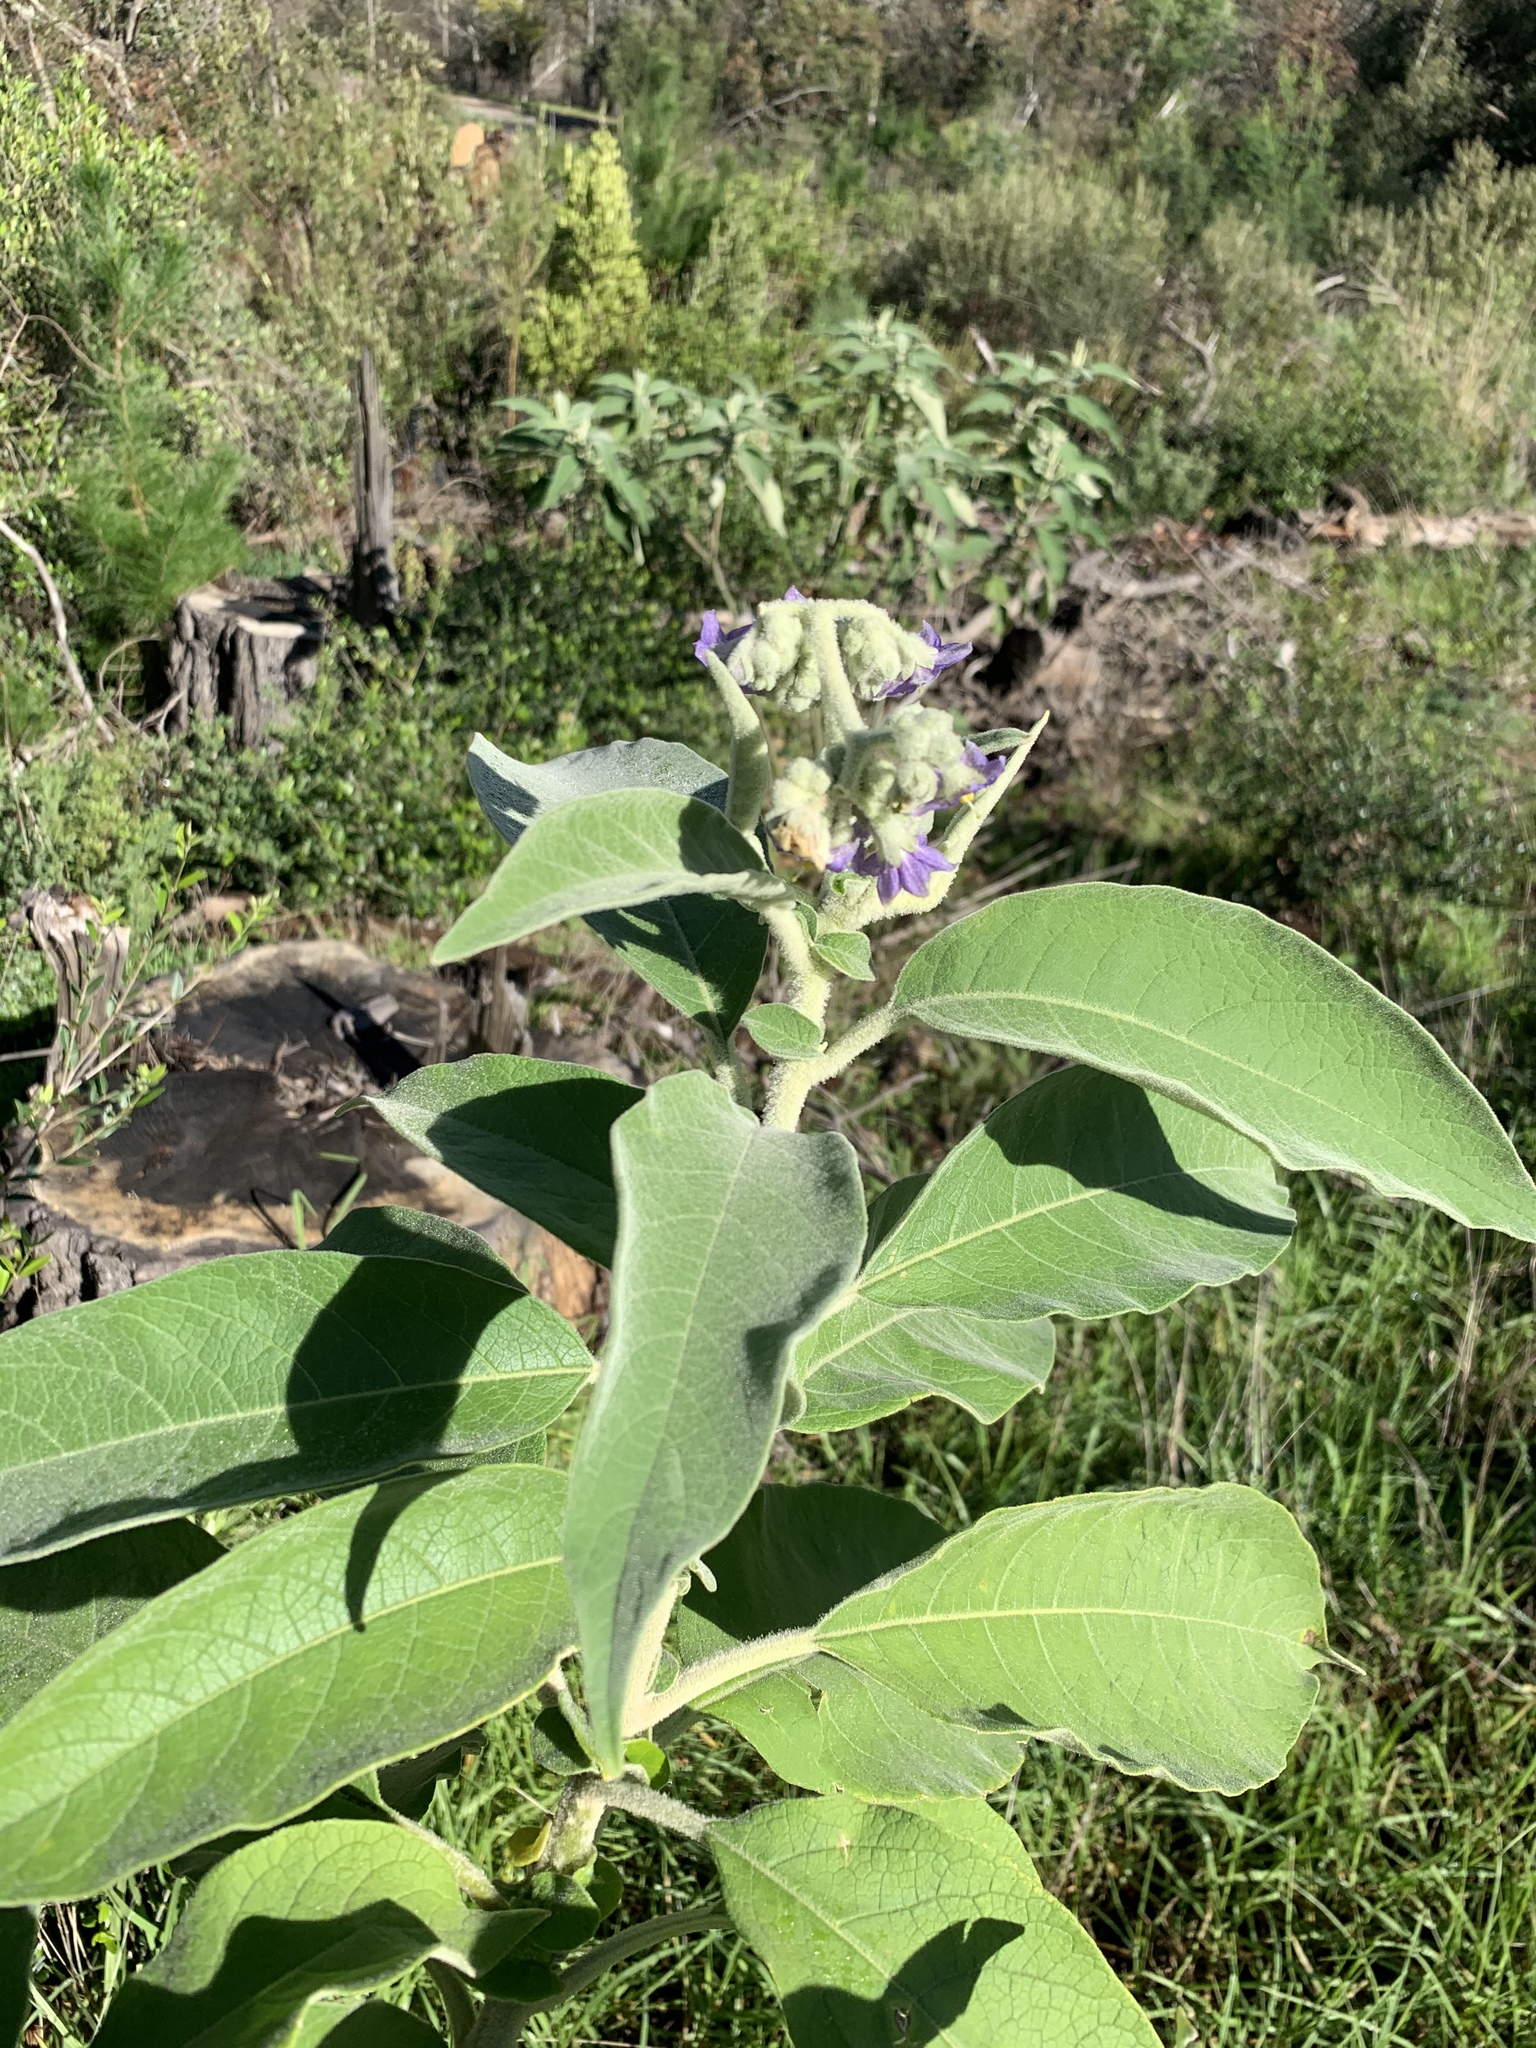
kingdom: Plantae
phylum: Tracheophyta
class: Magnoliopsida
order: Solanales
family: Solanaceae
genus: Solanum
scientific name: Solanum mauritianum
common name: Earleaf nightshade
